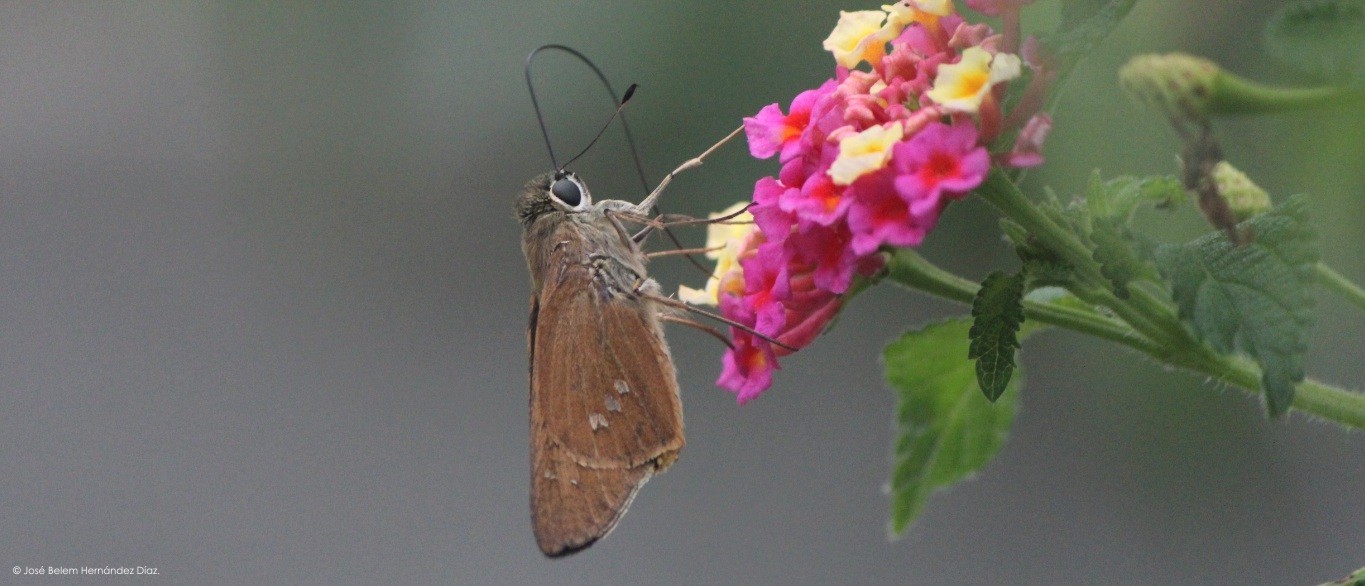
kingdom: Animalia
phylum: Arthropoda
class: Insecta
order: Lepidoptera
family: Hesperiidae
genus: Calpodes
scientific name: Calpodes ethlius
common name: Brazilian skipper
